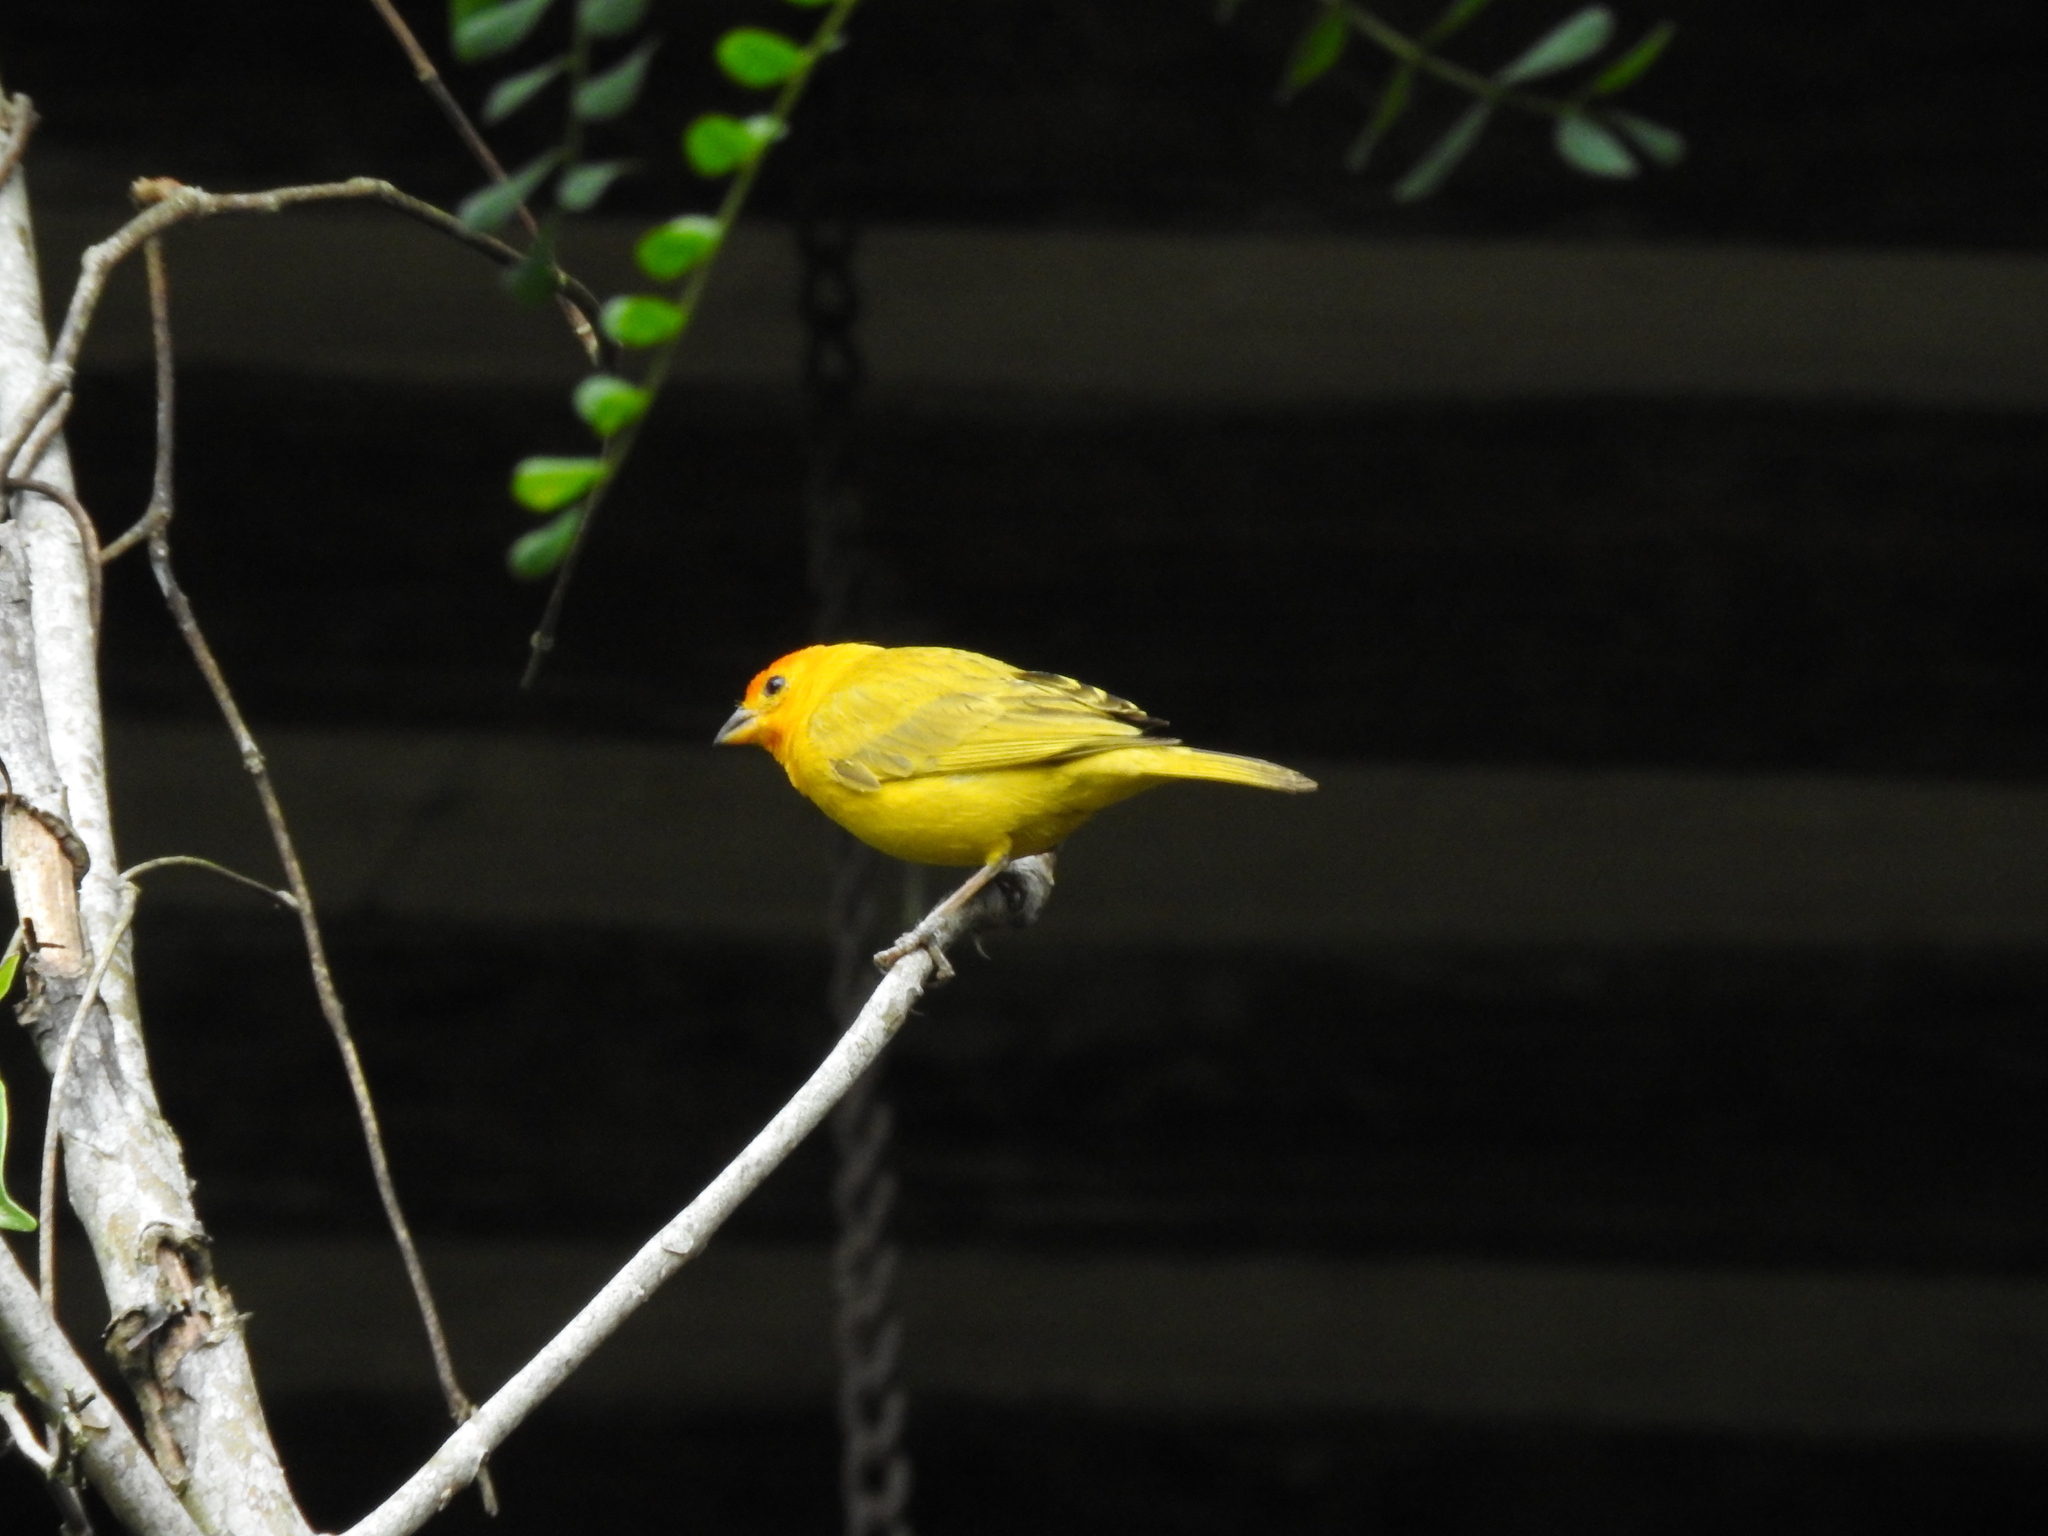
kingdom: Animalia
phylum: Chordata
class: Aves
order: Passeriformes
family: Thraupidae
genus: Sicalis
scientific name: Sicalis flaveola
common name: Saffron finch
